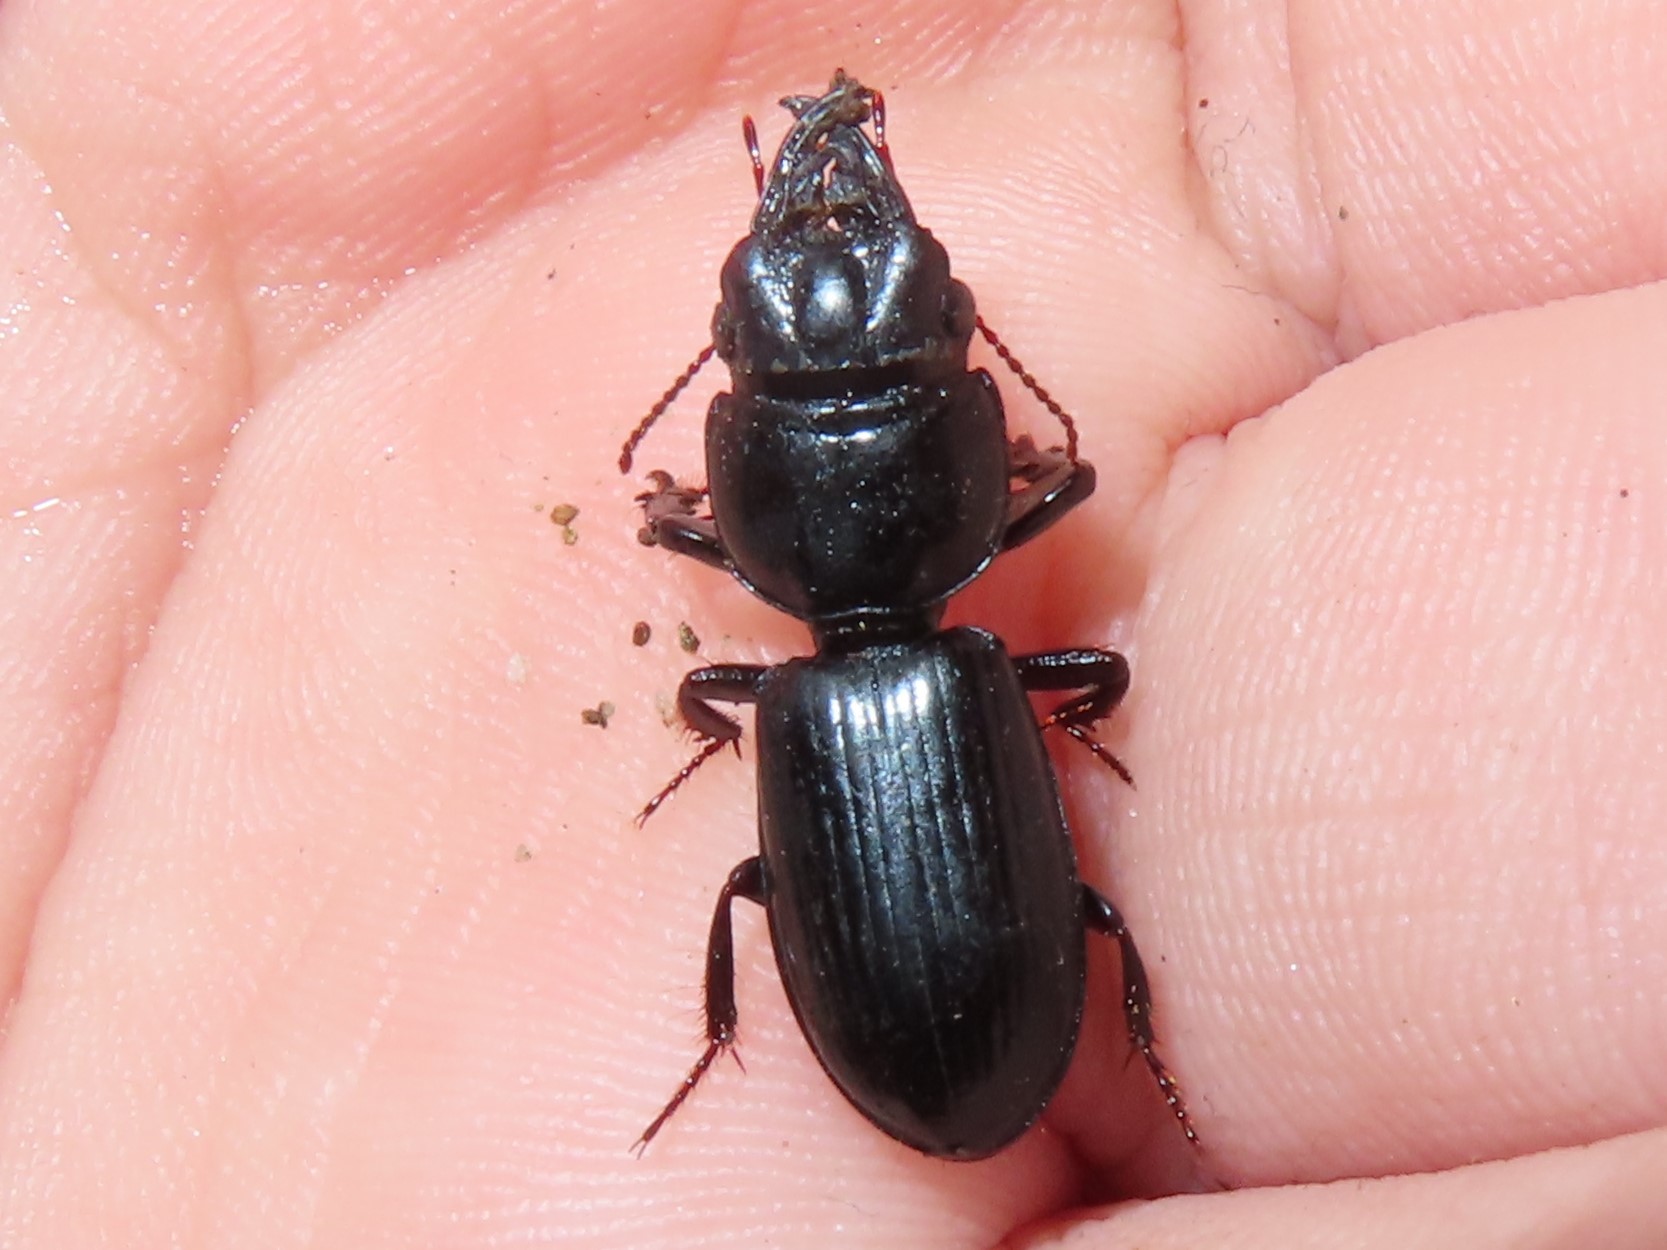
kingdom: Animalia
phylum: Arthropoda
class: Insecta
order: Coleoptera
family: Carabidae
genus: Scarites
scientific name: Scarites subterraneus
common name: Big-headed ground beetle
